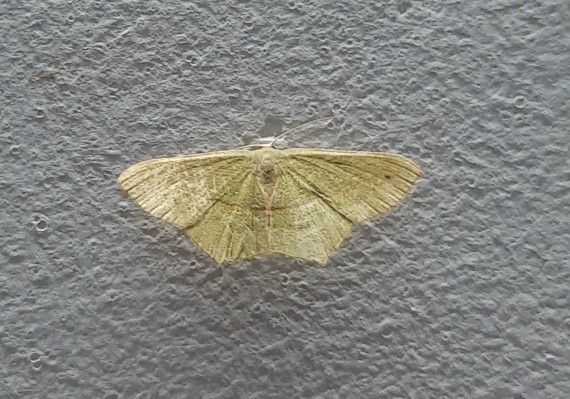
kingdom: Animalia
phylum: Arthropoda
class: Insecta
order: Lepidoptera
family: Geometridae
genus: Traminda
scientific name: Traminda mundissima
